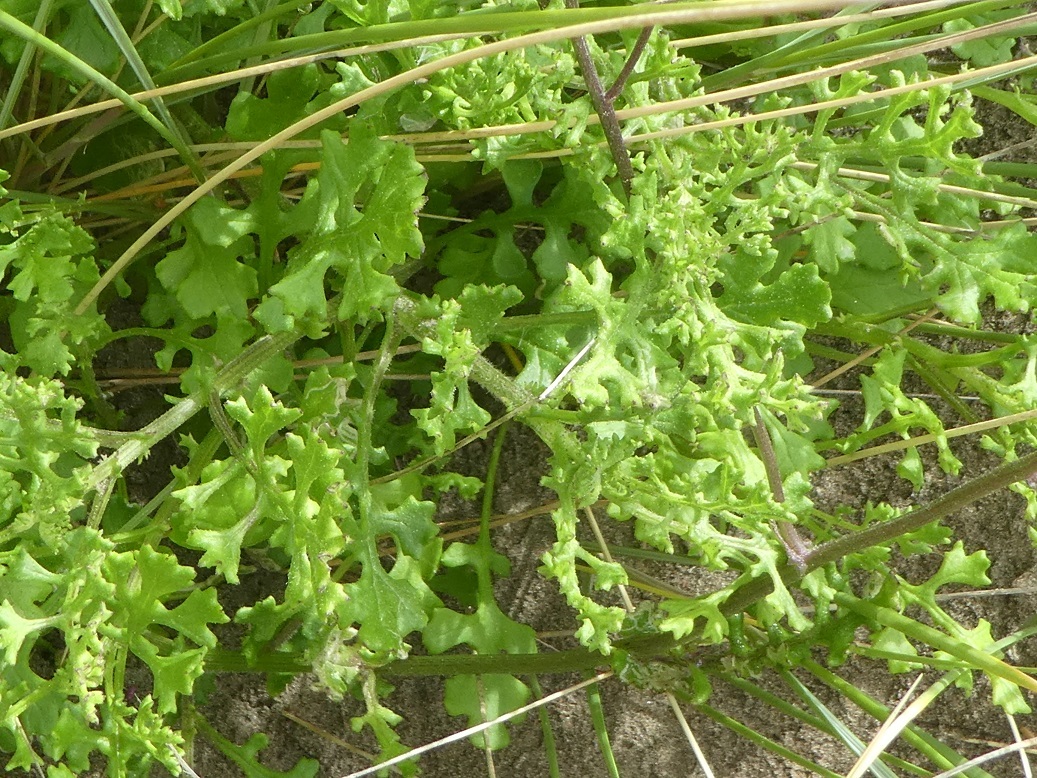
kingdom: Plantae
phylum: Tracheophyta
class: Magnoliopsida
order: Asterales
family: Asteraceae
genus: Senecio
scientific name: Senecio elegans
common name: Purple groundsel
